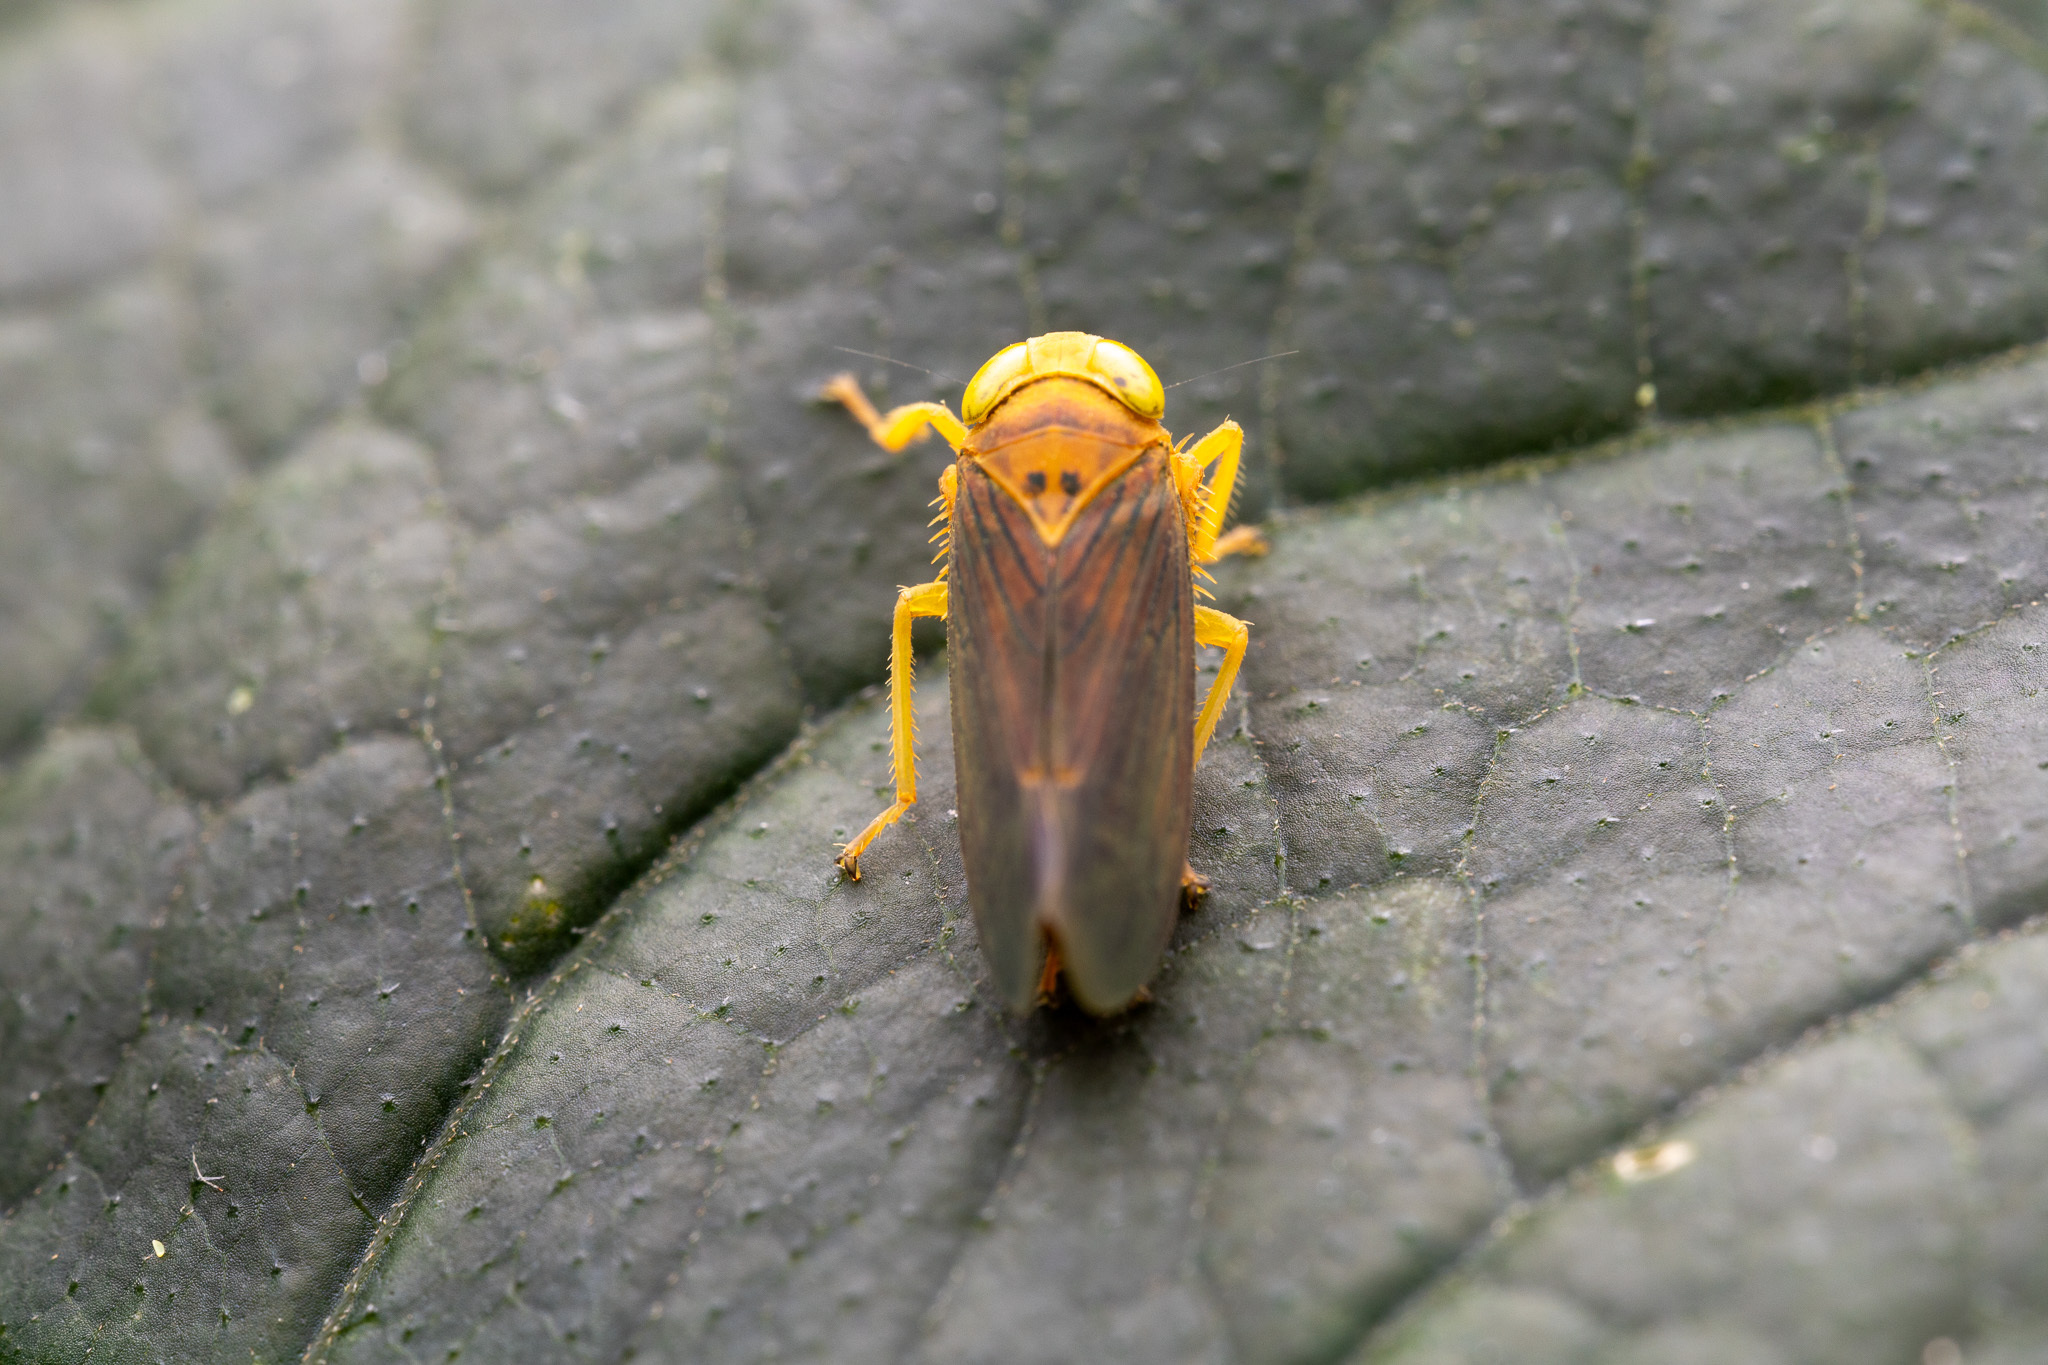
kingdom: Animalia
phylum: Arthropoda
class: Insecta
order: Hemiptera
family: Cicadellidae
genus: Jikradia
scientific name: Jikradia olitoria
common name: Coppery leafhopper
